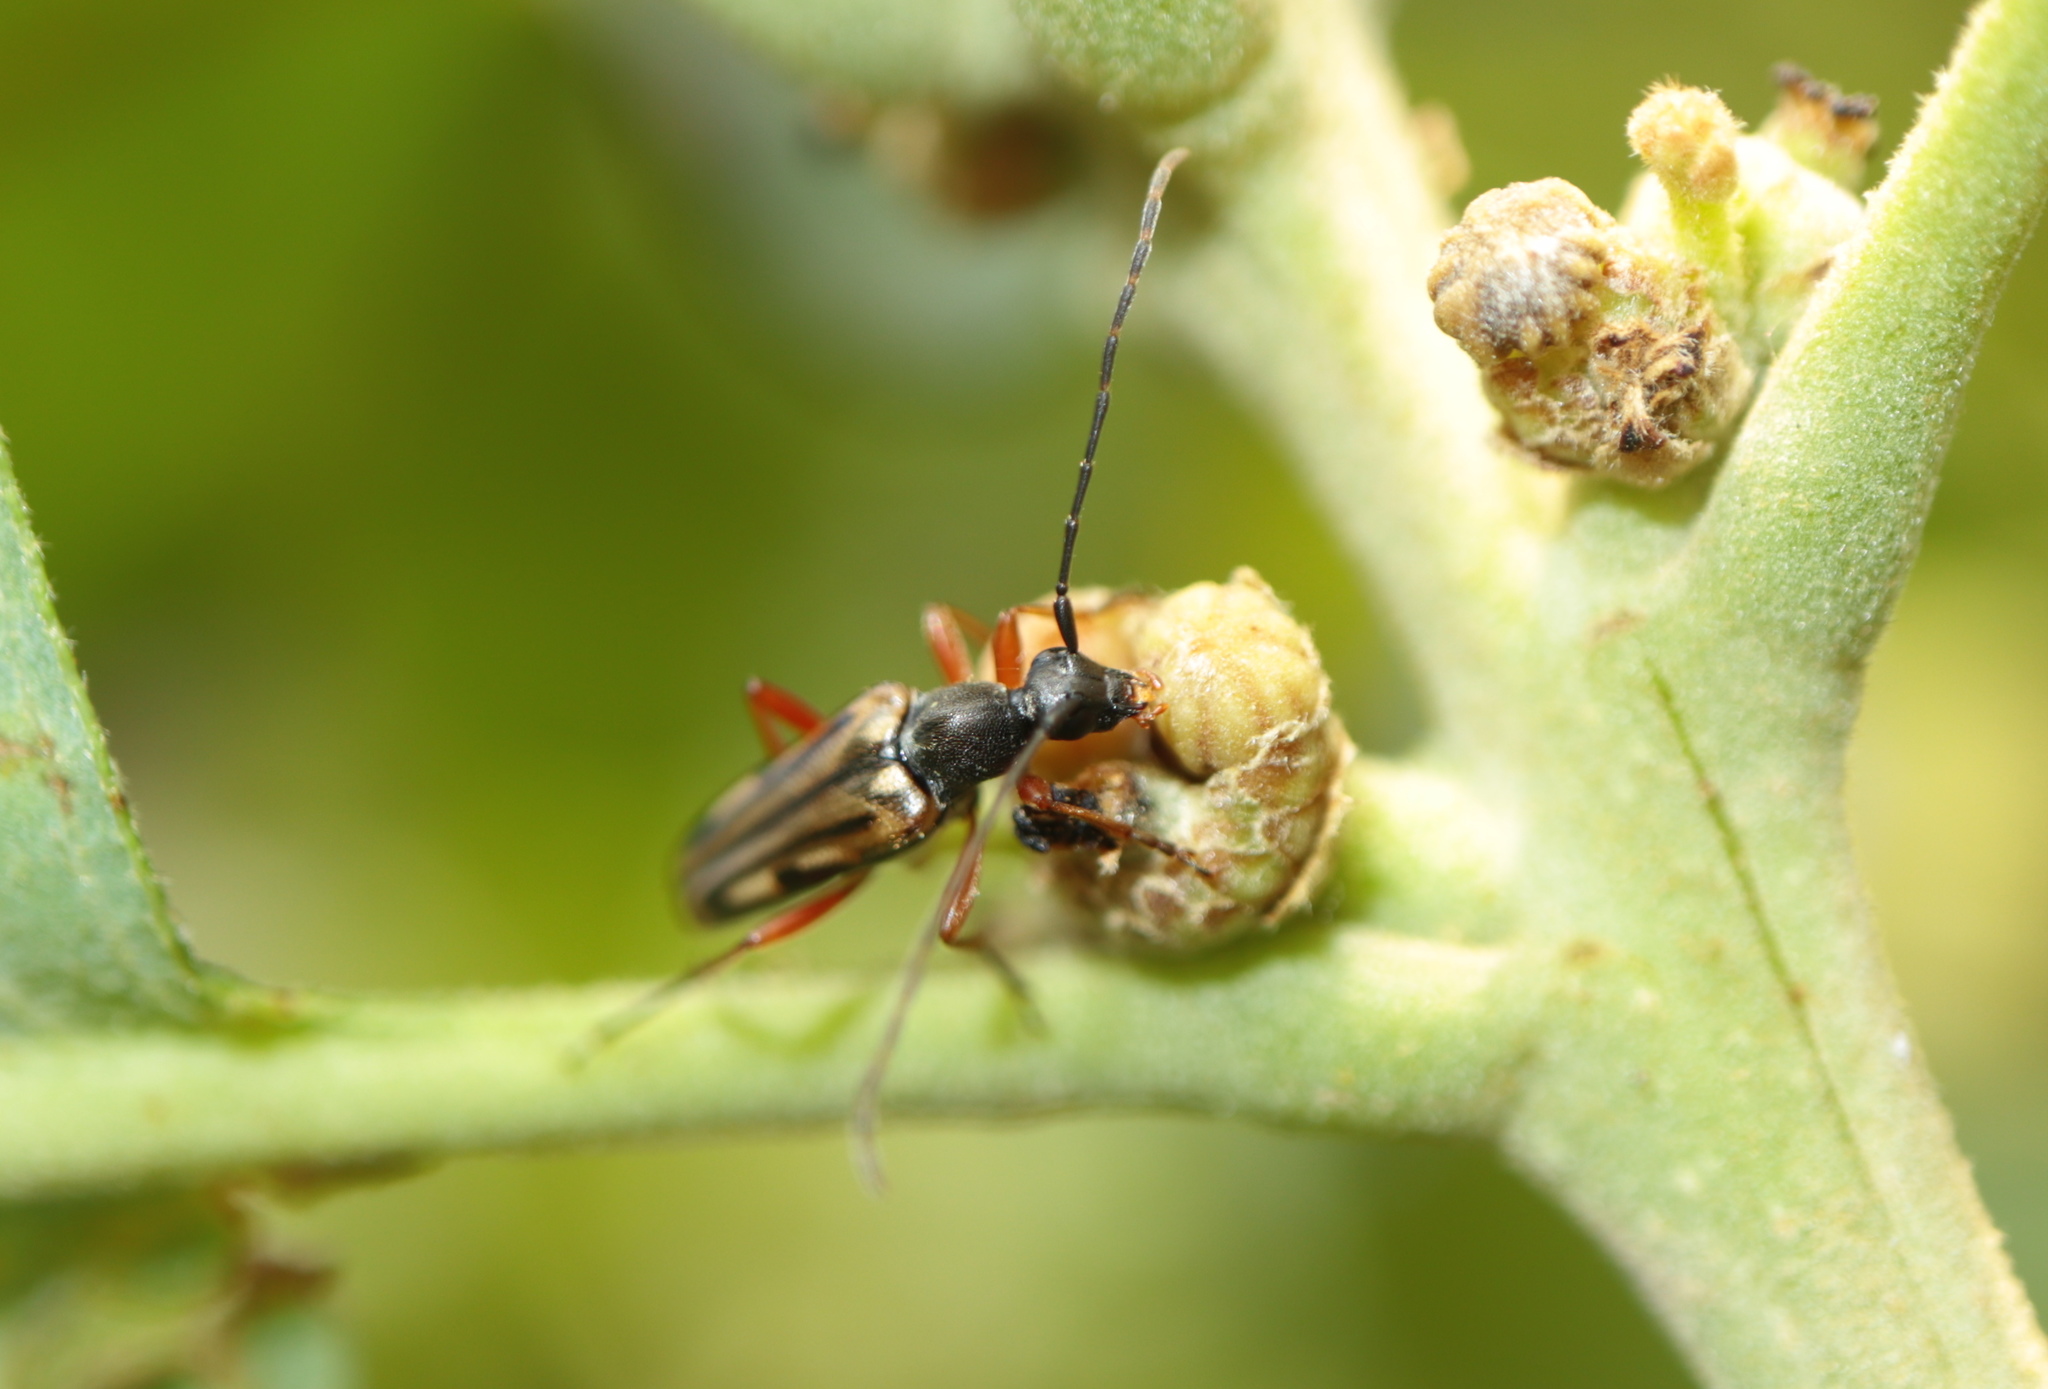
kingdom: Animalia
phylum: Arthropoda
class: Insecta
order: Coleoptera
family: Cerambycidae
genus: Analeptura
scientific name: Analeptura lineola
